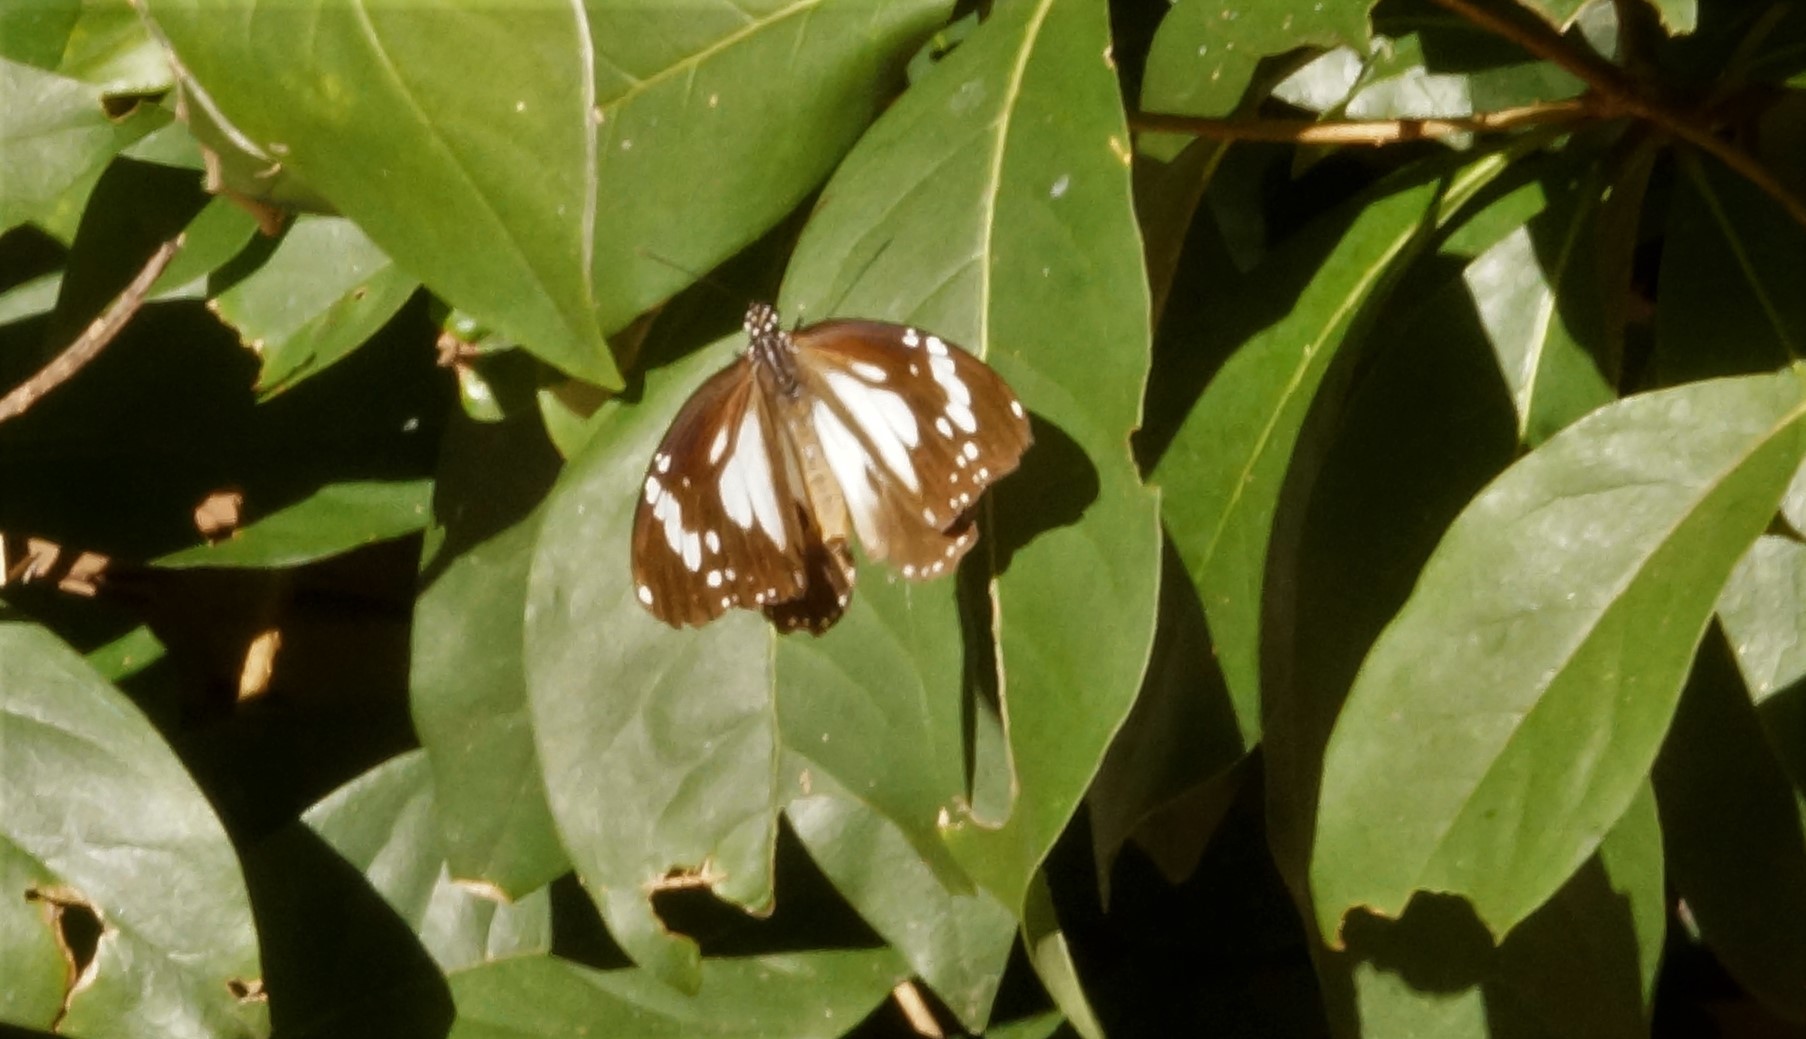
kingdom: Animalia
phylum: Arthropoda
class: Insecta
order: Lepidoptera
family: Nymphalidae
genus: Danaus
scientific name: Danaus affinis
